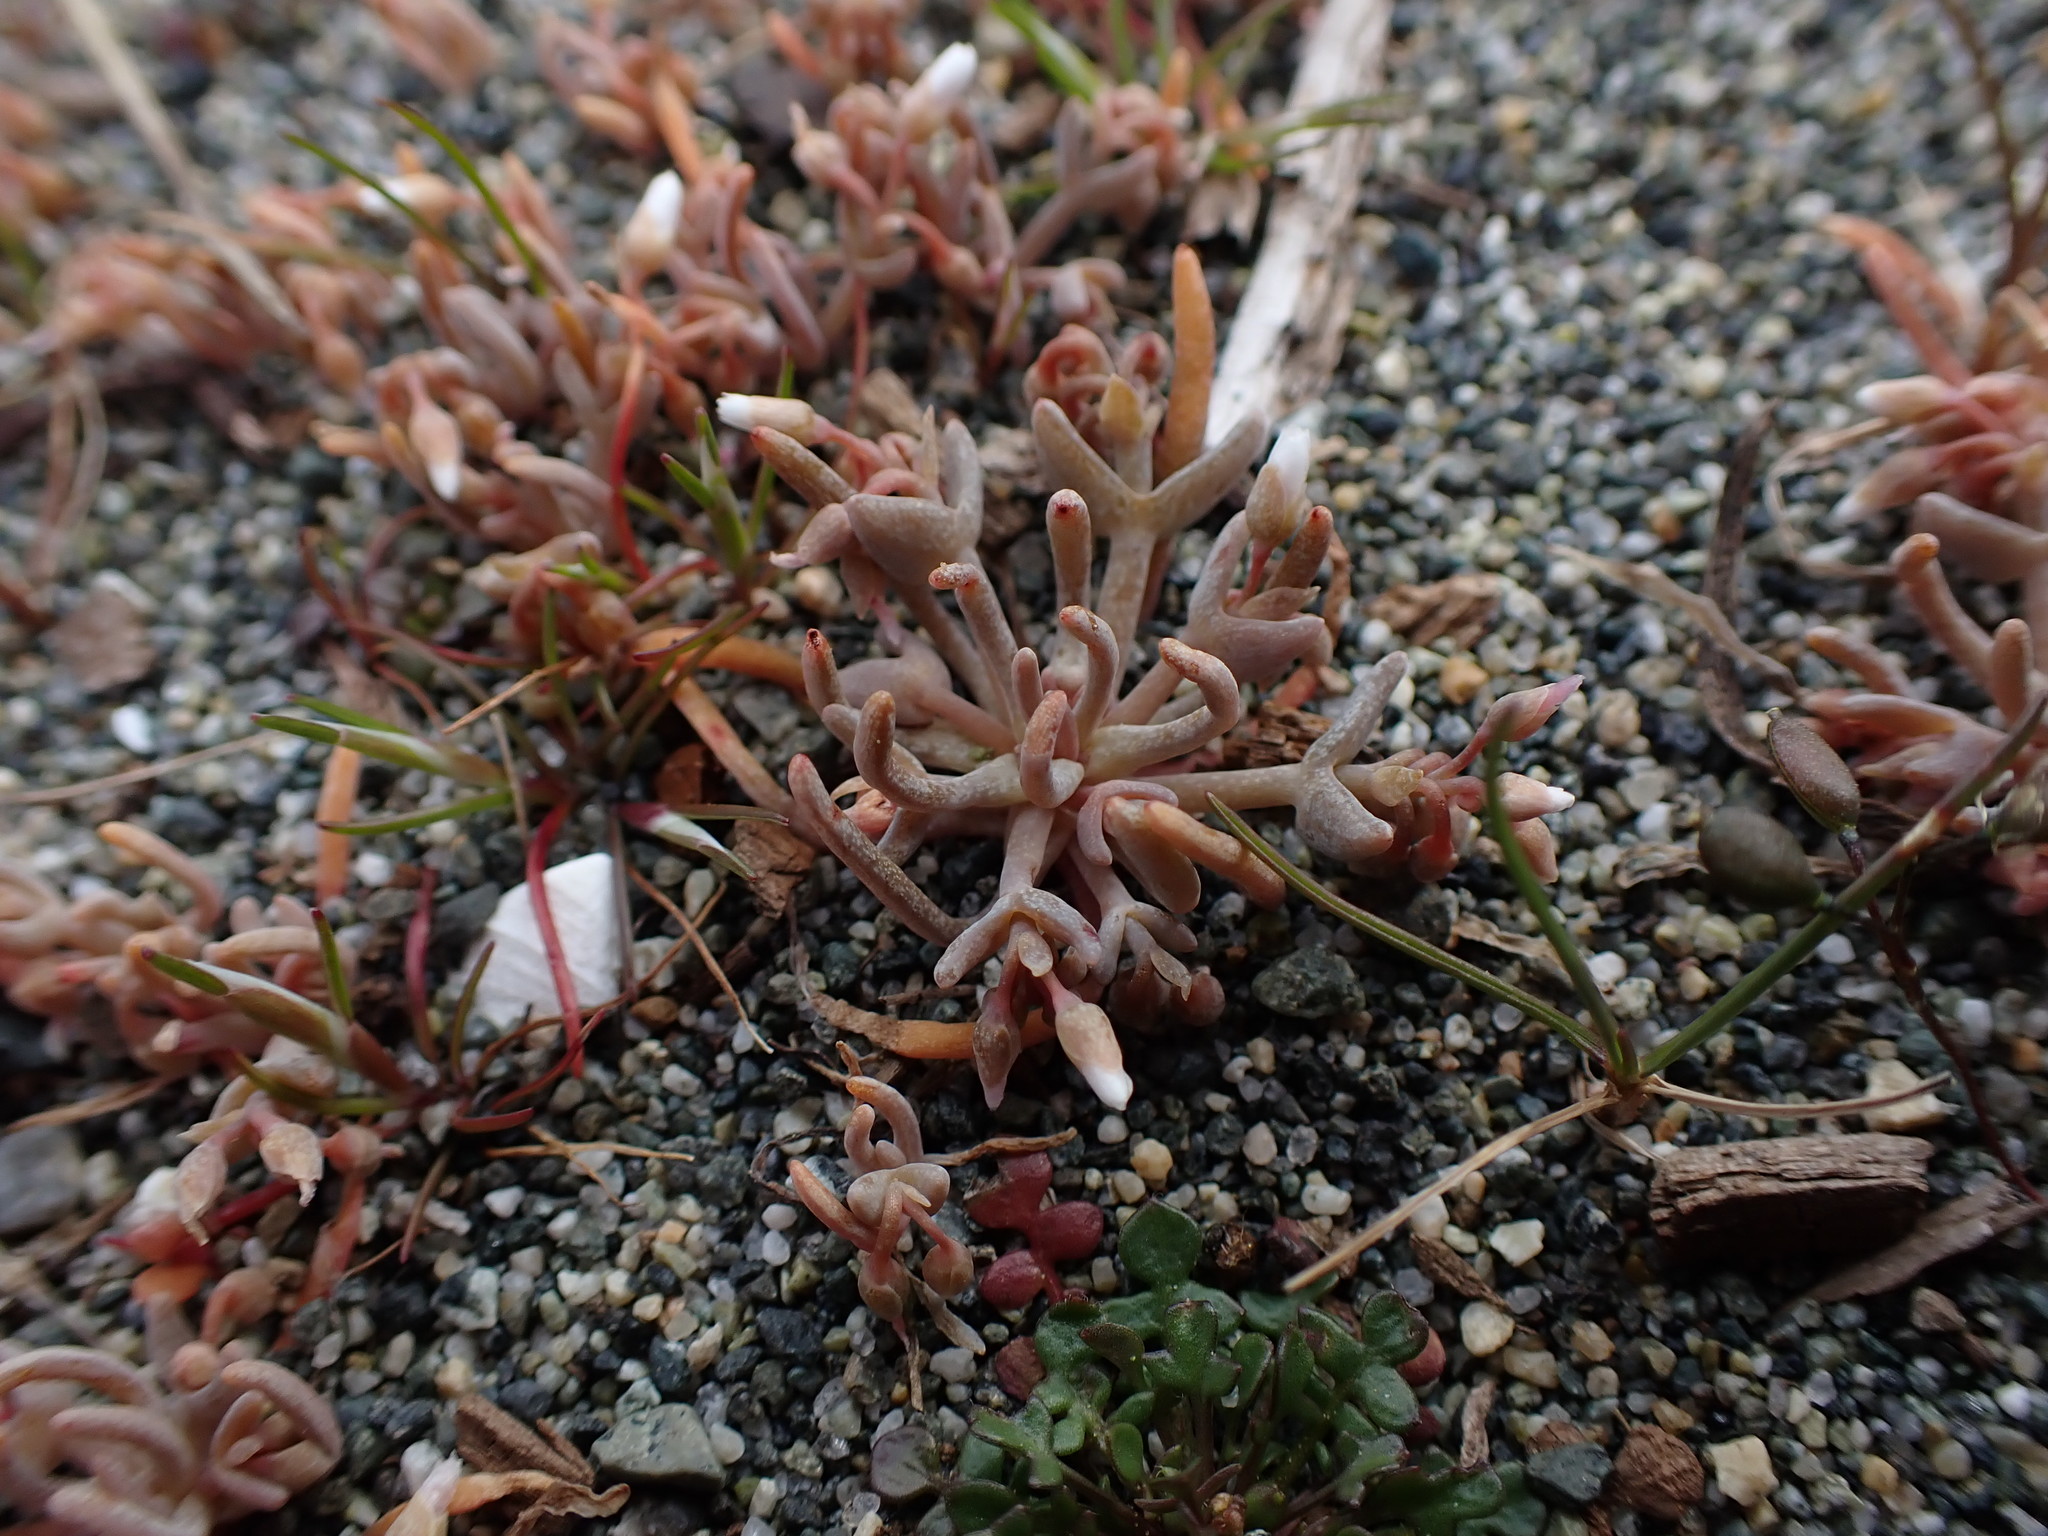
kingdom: Plantae
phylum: Tracheophyta
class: Magnoliopsida
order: Caryophyllales
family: Montiaceae
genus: Claytonia
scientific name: Claytonia exigua
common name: Pale spring beauty
